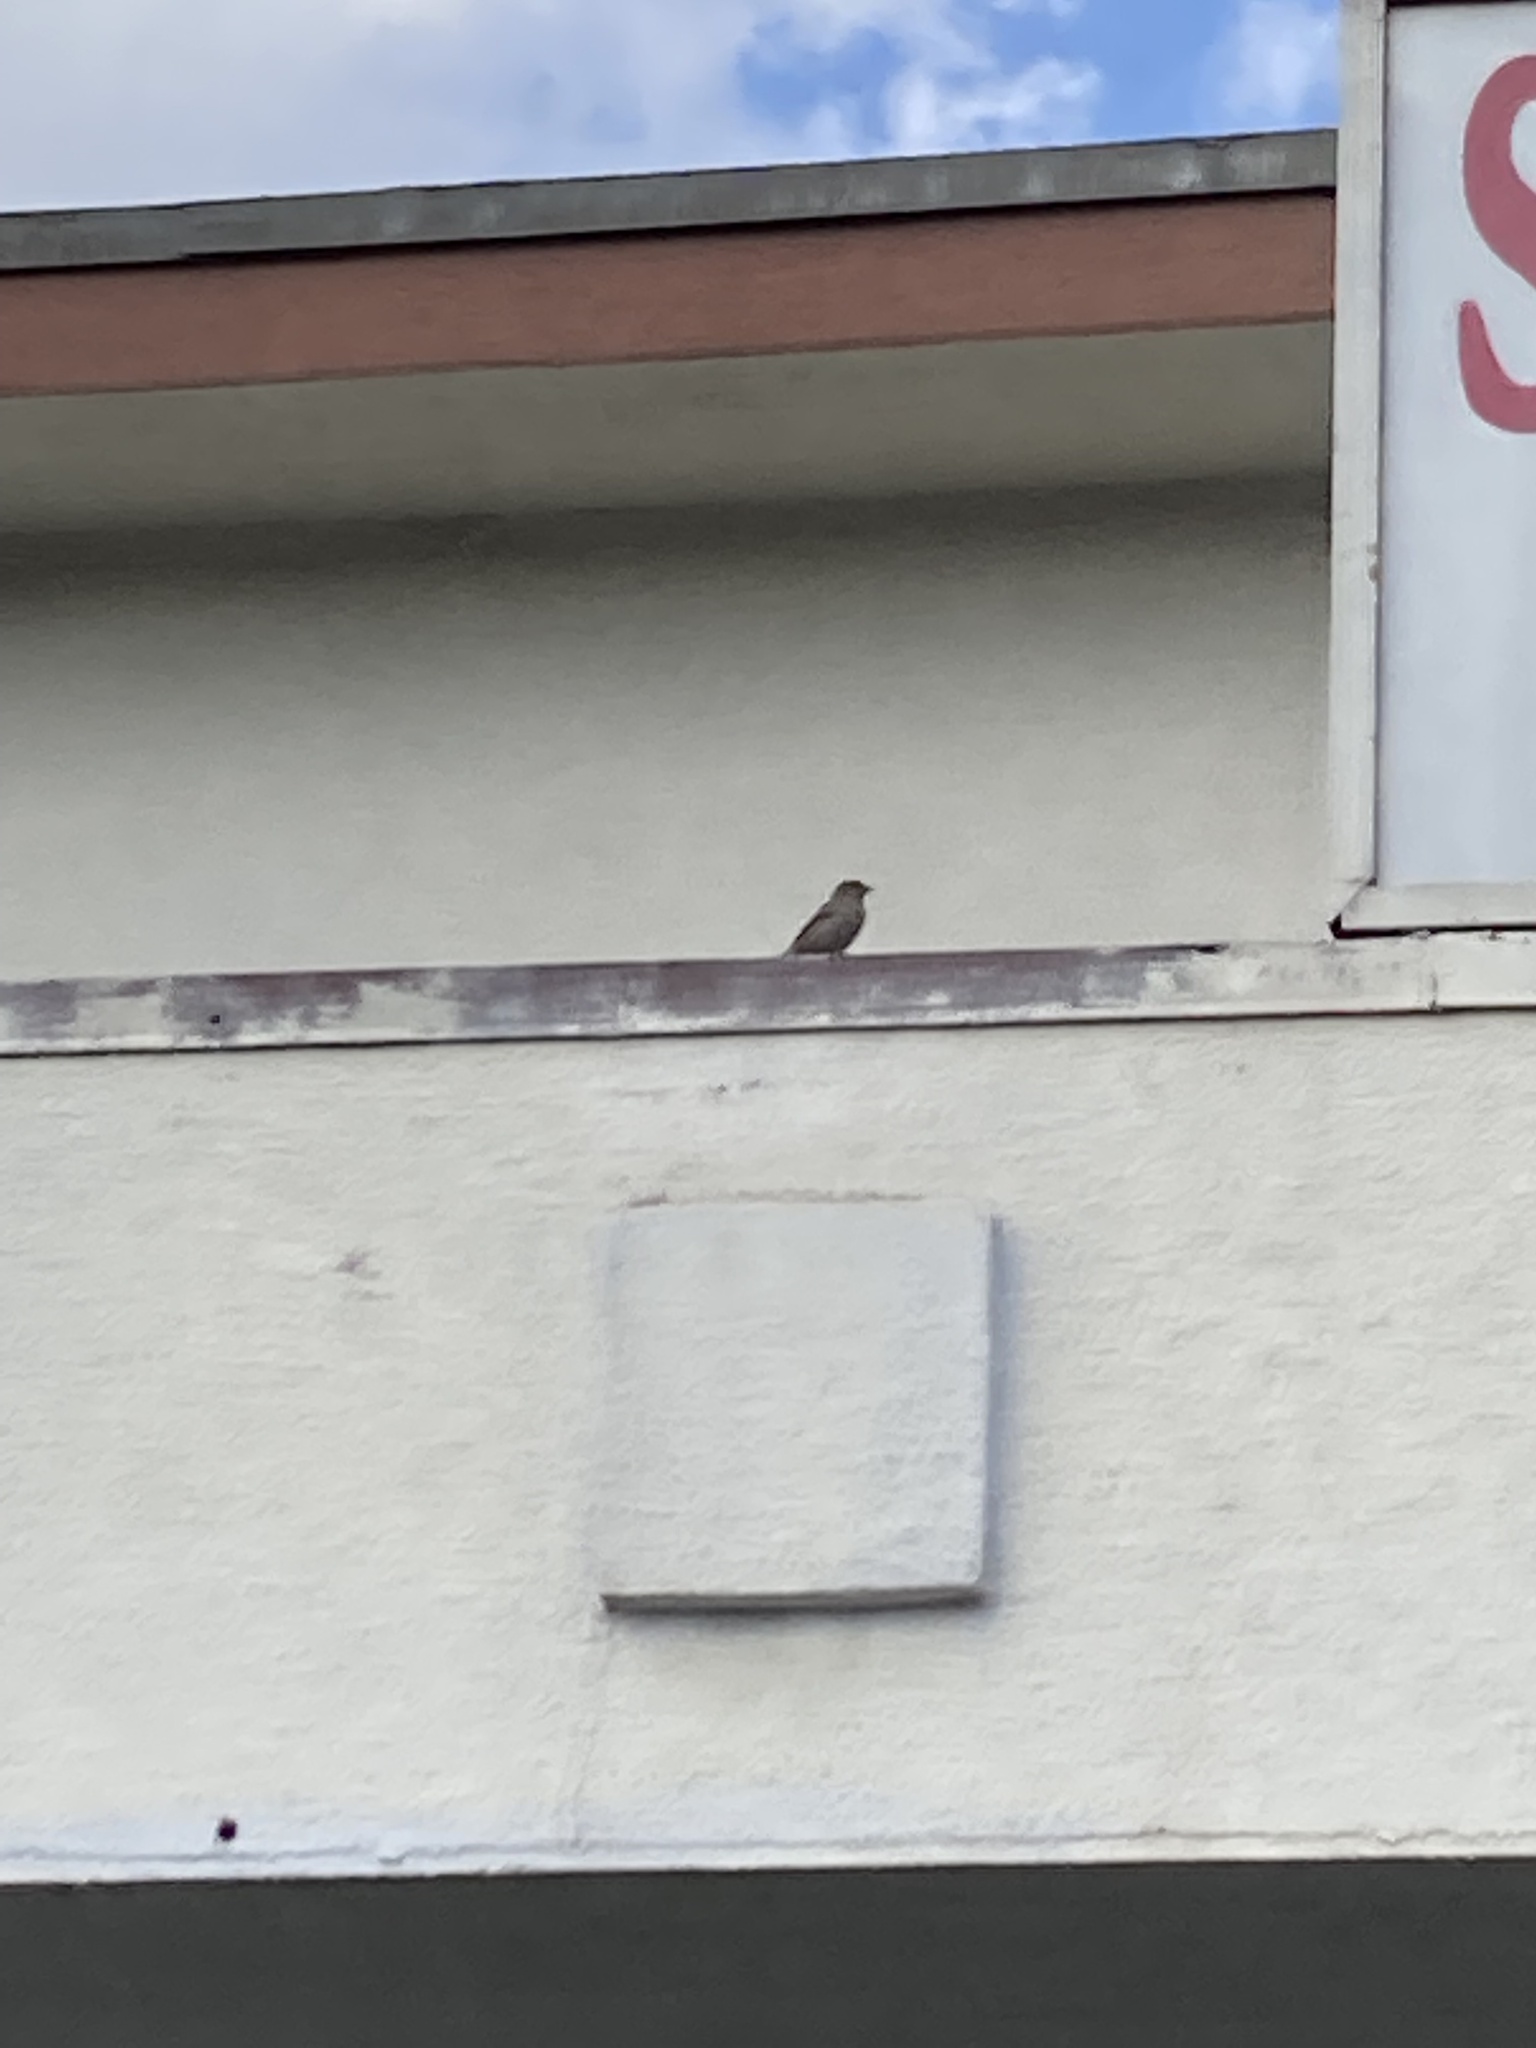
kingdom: Animalia
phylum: Chordata
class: Aves
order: Passeriformes
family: Passeridae
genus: Passer
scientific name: Passer domesticus
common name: House sparrow
